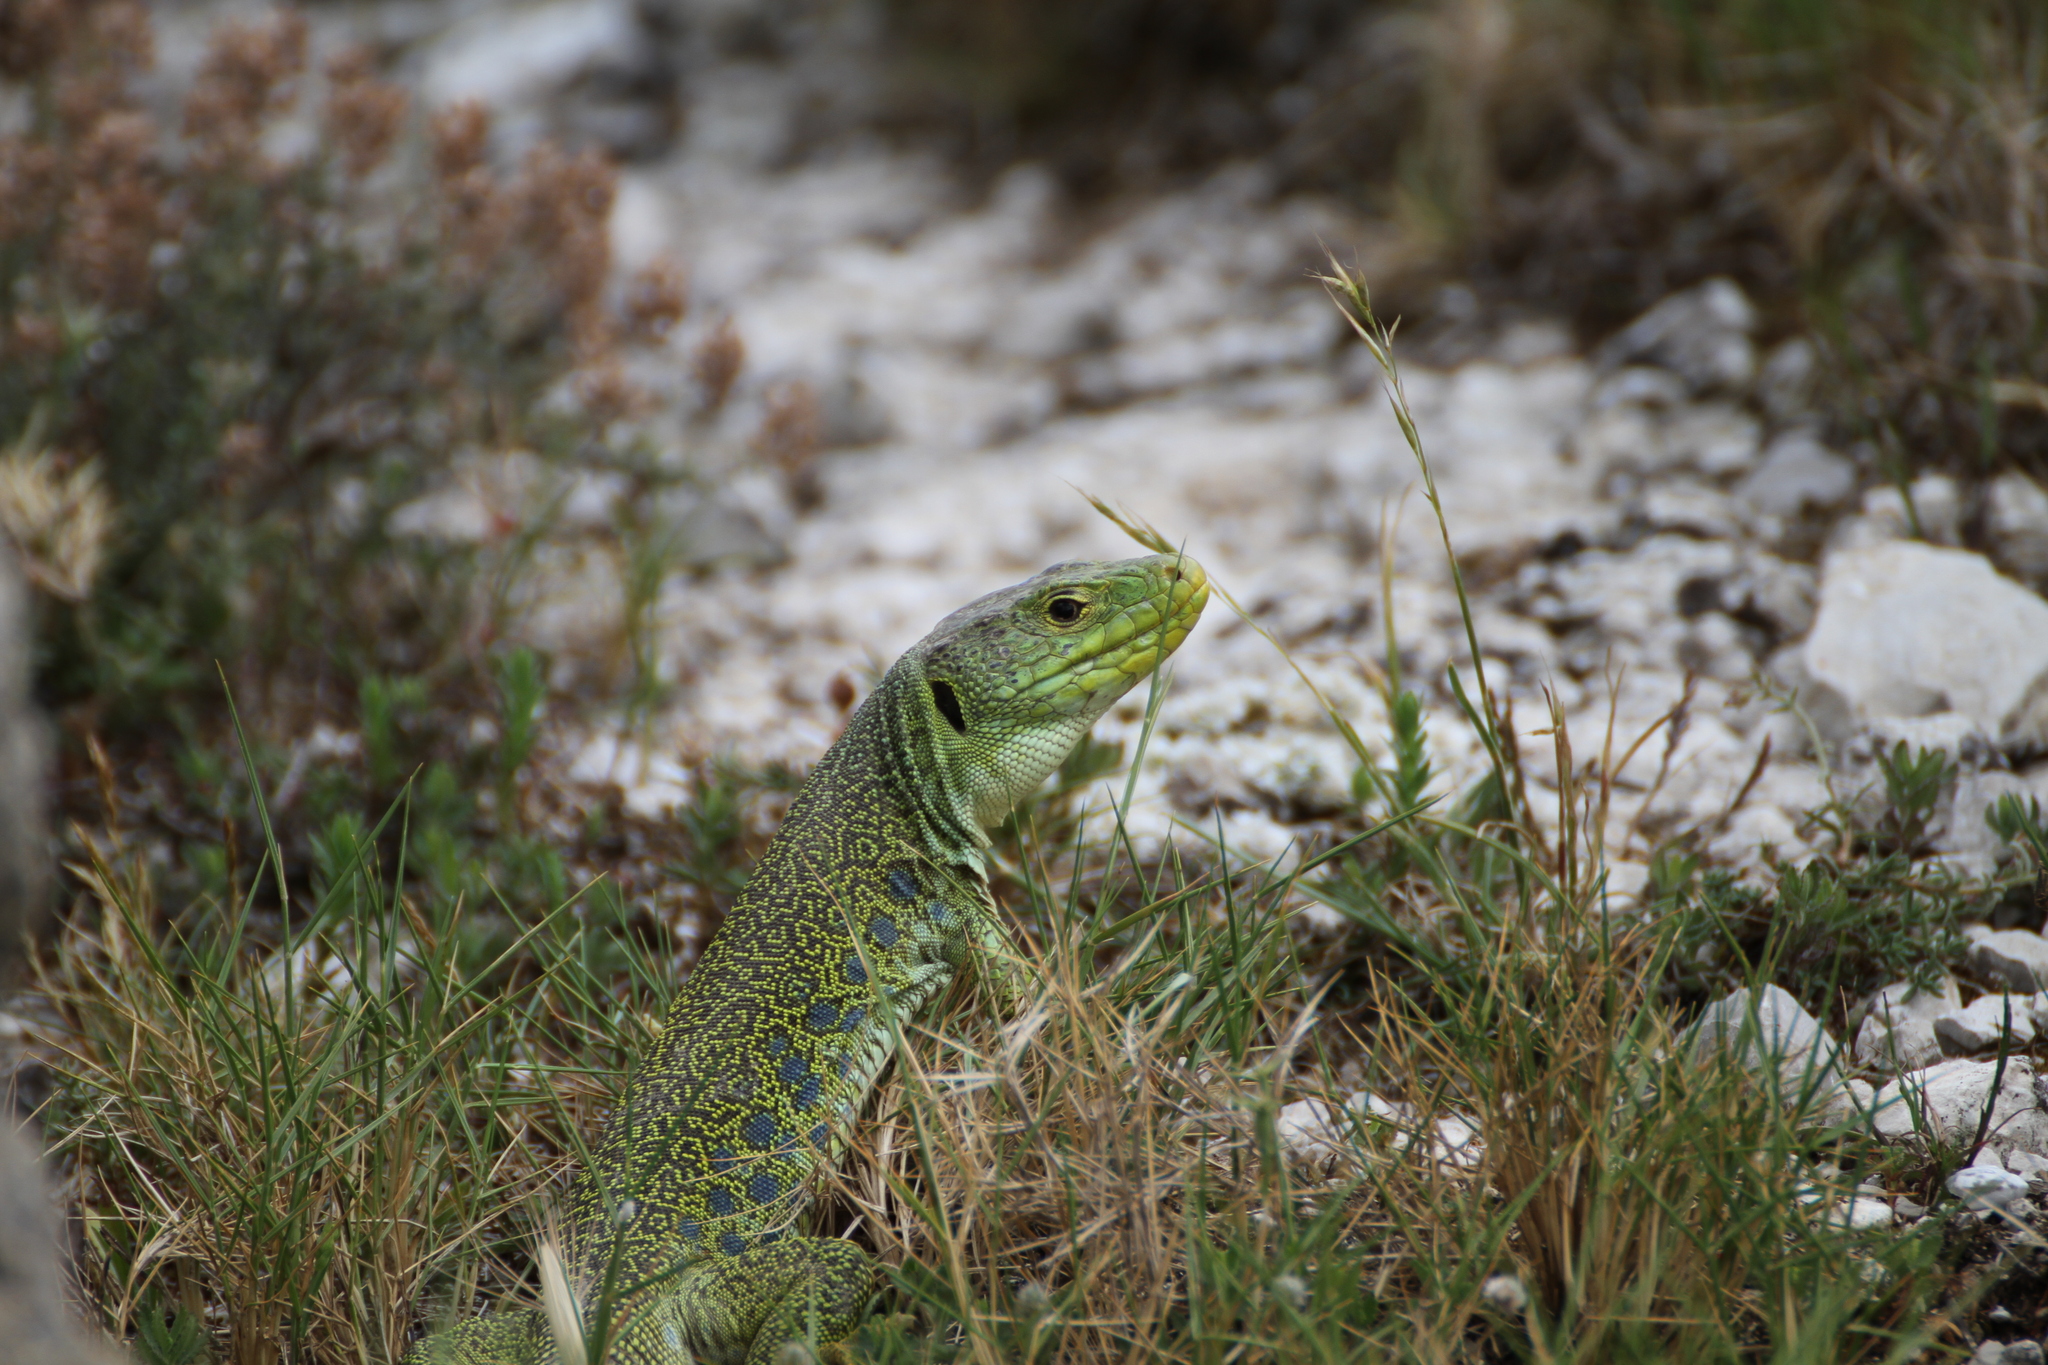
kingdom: Animalia
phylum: Chordata
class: Squamata
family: Lacertidae
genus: Timon
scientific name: Timon lepidus
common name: Ocellated lizard
